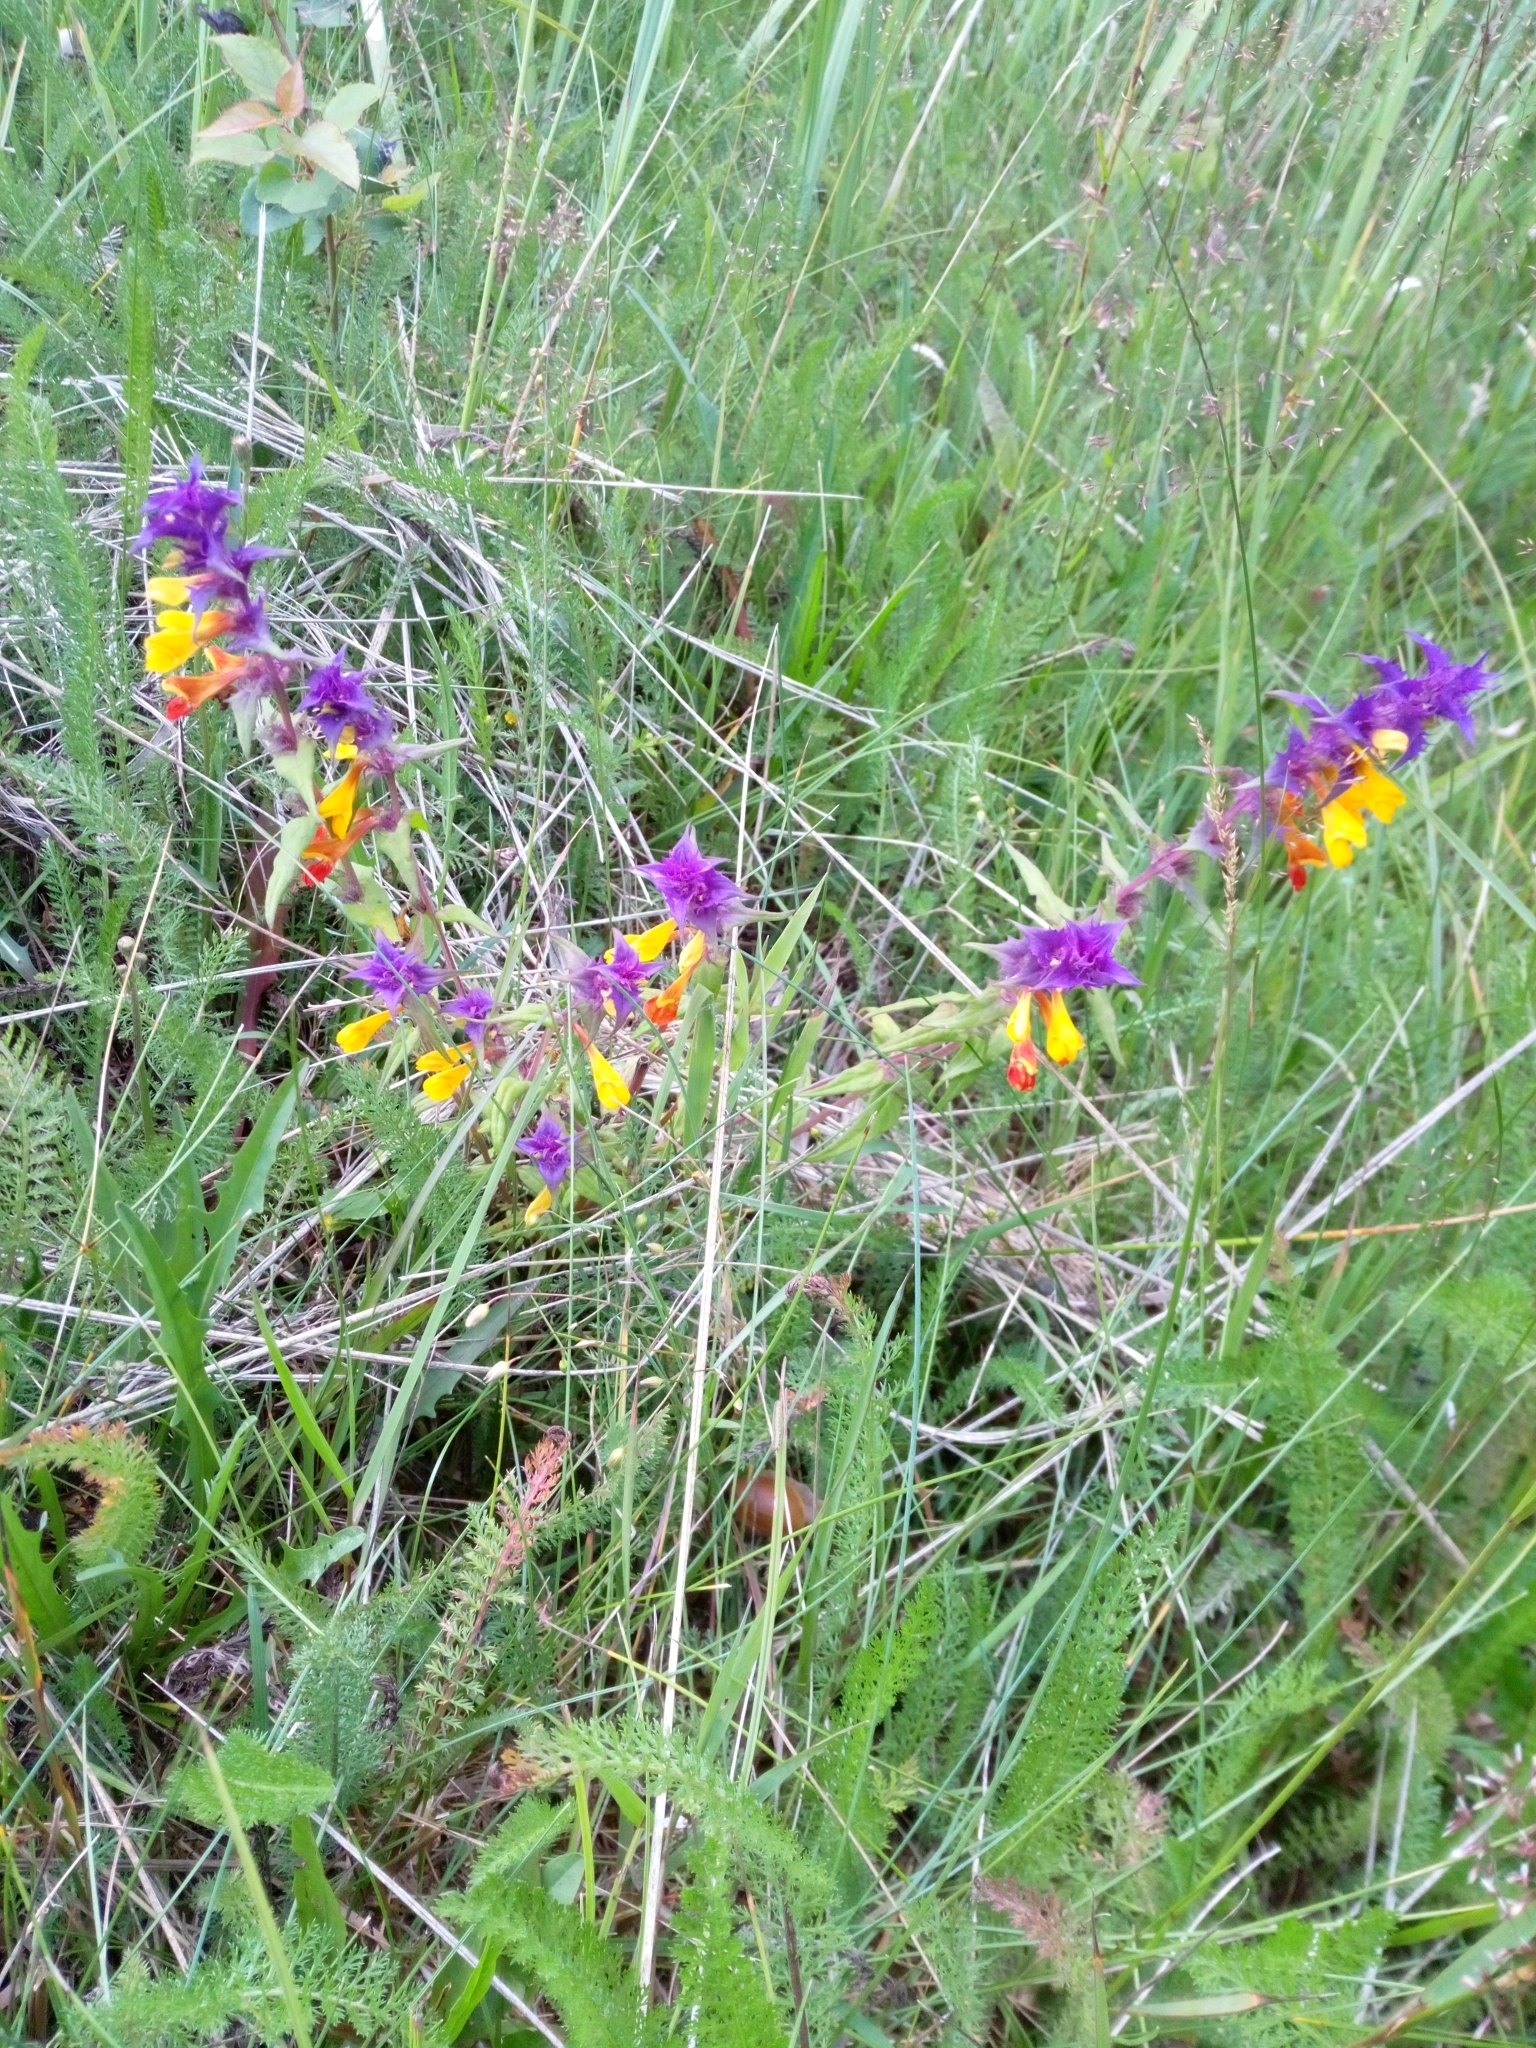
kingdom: Plantae
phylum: Tracheophyta
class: Magnoliopsida
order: Lamiales
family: Orobanchaceae
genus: Melampyrum
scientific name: Melampyrum nemorosum
